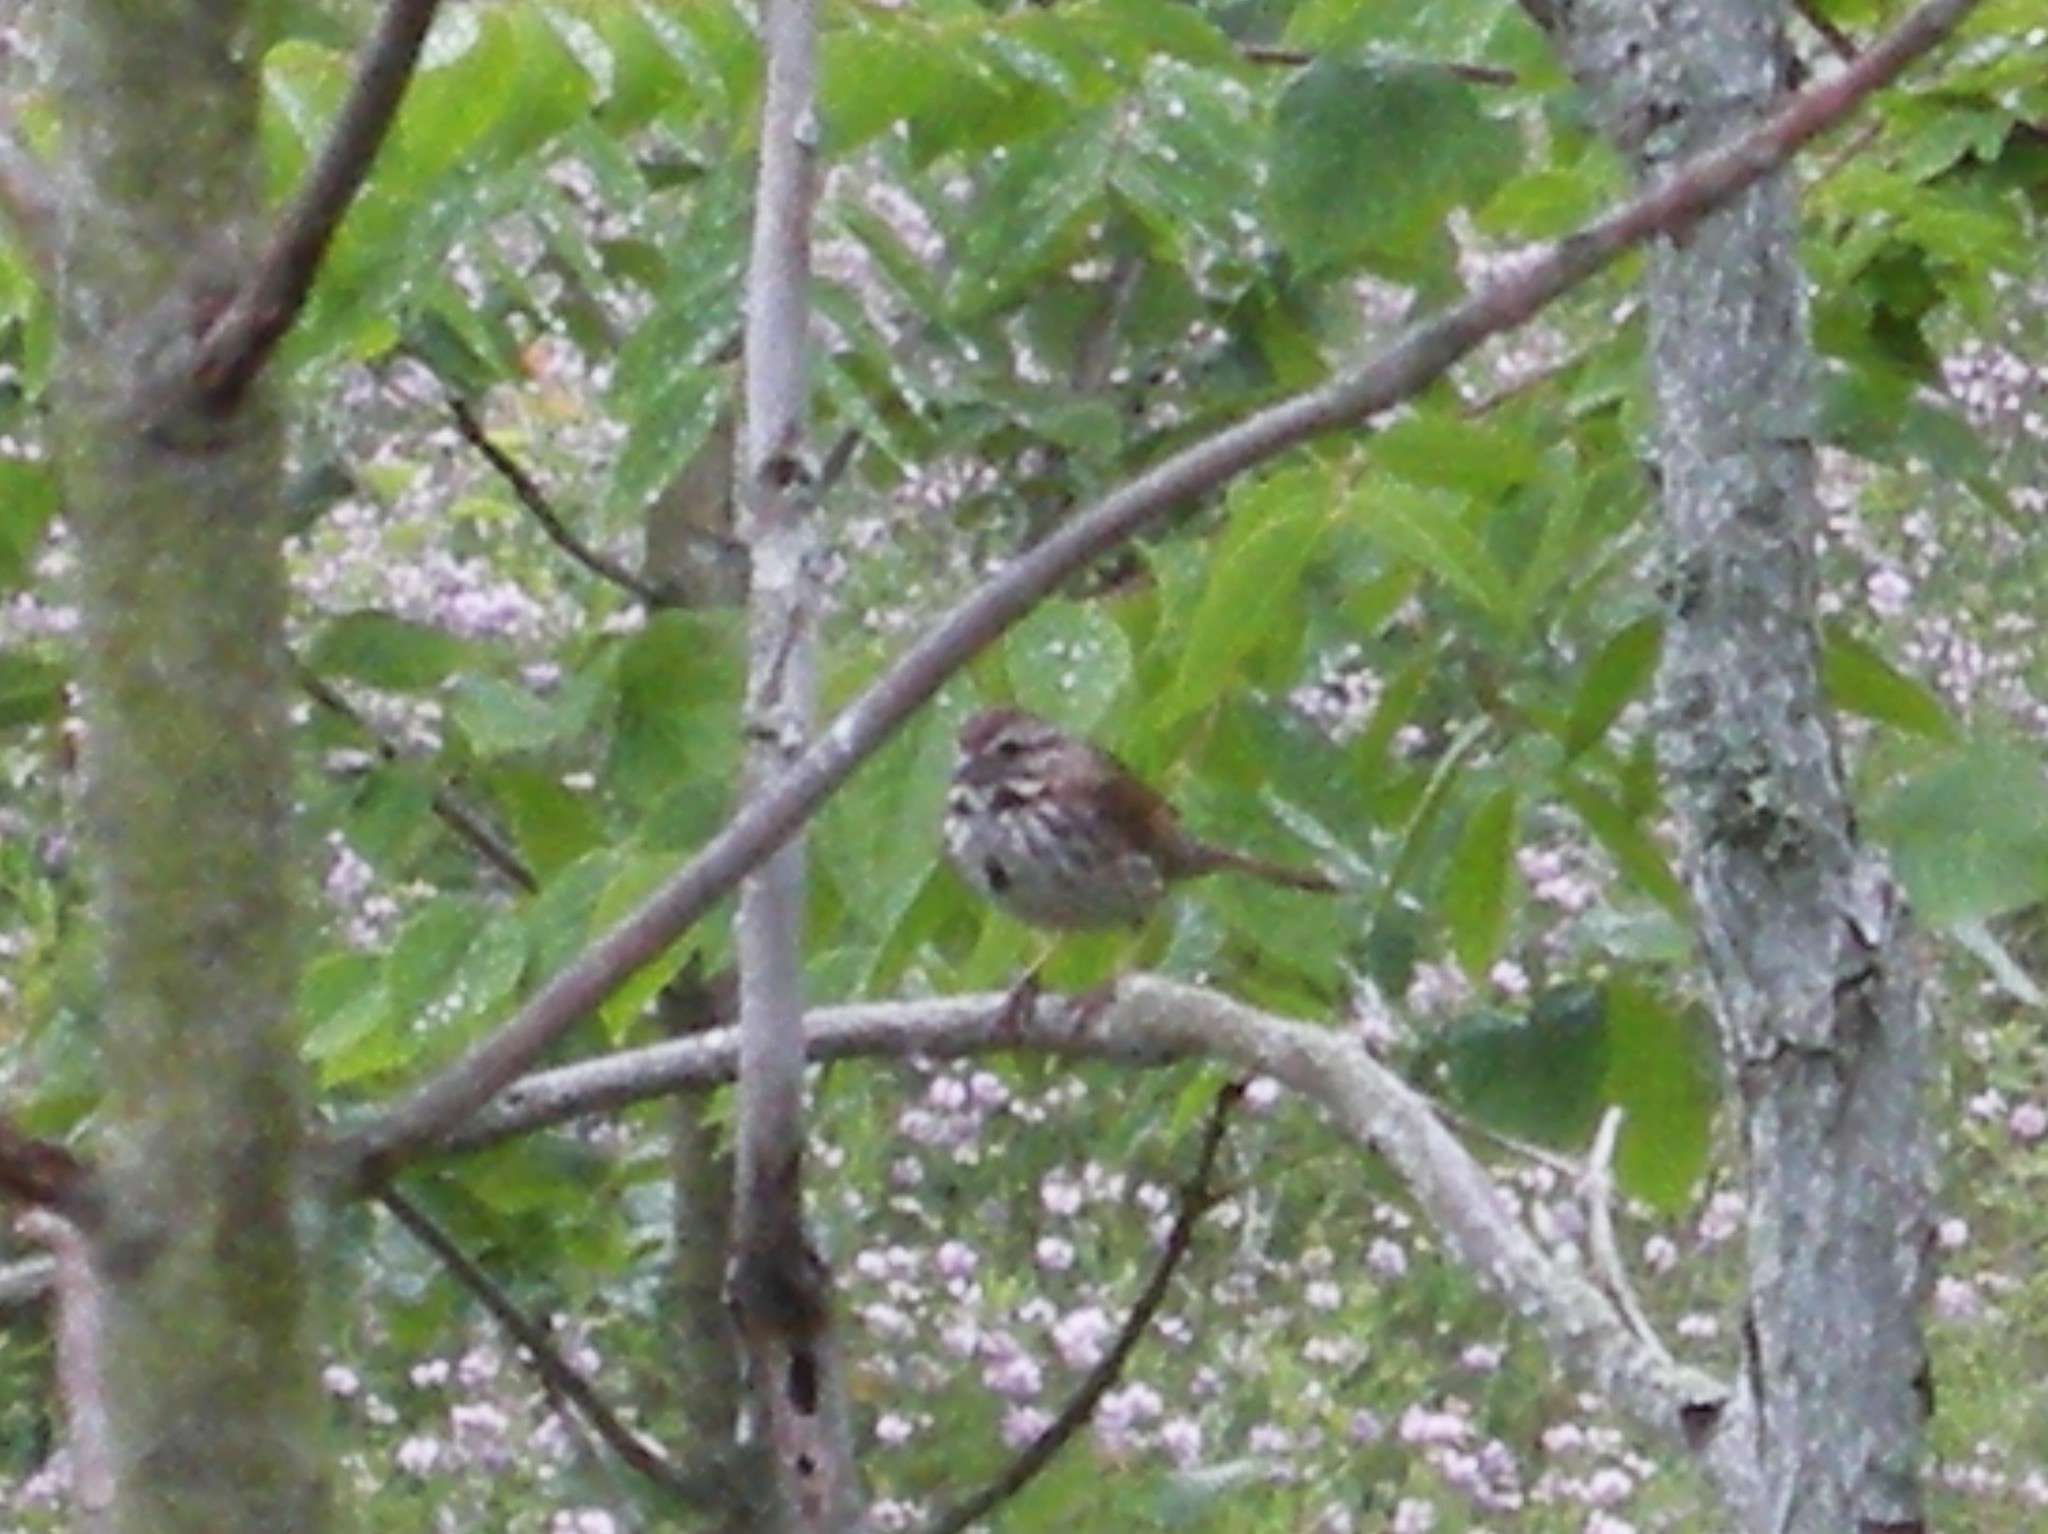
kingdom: Animalia
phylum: Chordata
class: Aves
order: Passeriformes
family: Passerellidae
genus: Melospiza
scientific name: Melospiza melodia
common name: Song sparrow
